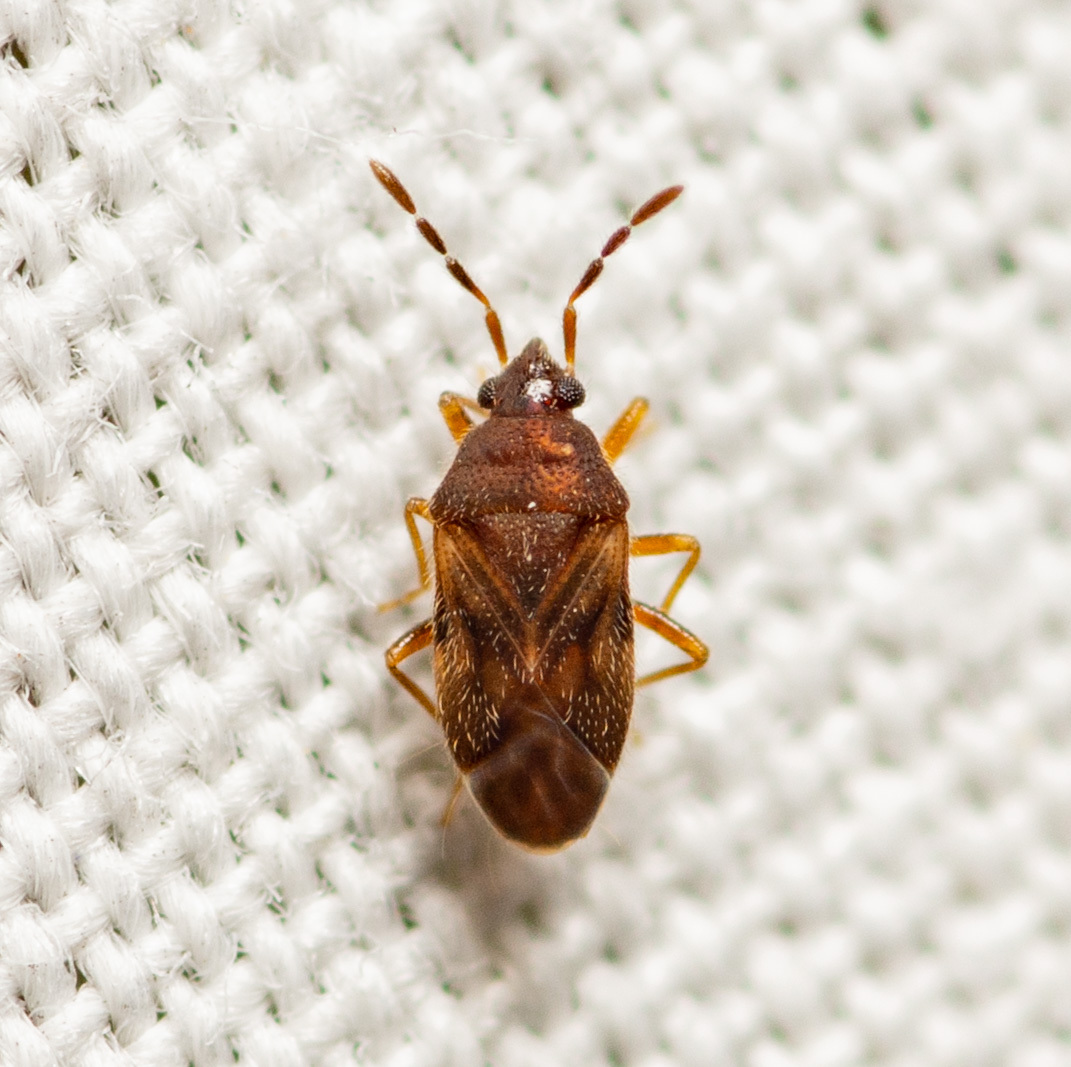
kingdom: Animalia
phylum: Arthropoda
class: Insecta
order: Hemiptera
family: Rhyparochromidae
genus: Antillocoris
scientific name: Antillocoris discretus
